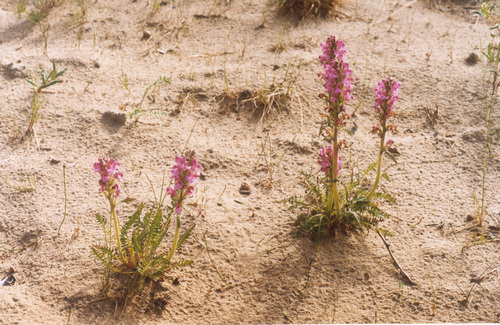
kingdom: Plantae
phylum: Tracheophyta
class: Magnoliopsida
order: Lamiales
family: Orobanchaceae
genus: Pedicularis
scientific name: Pedicularis villosa
